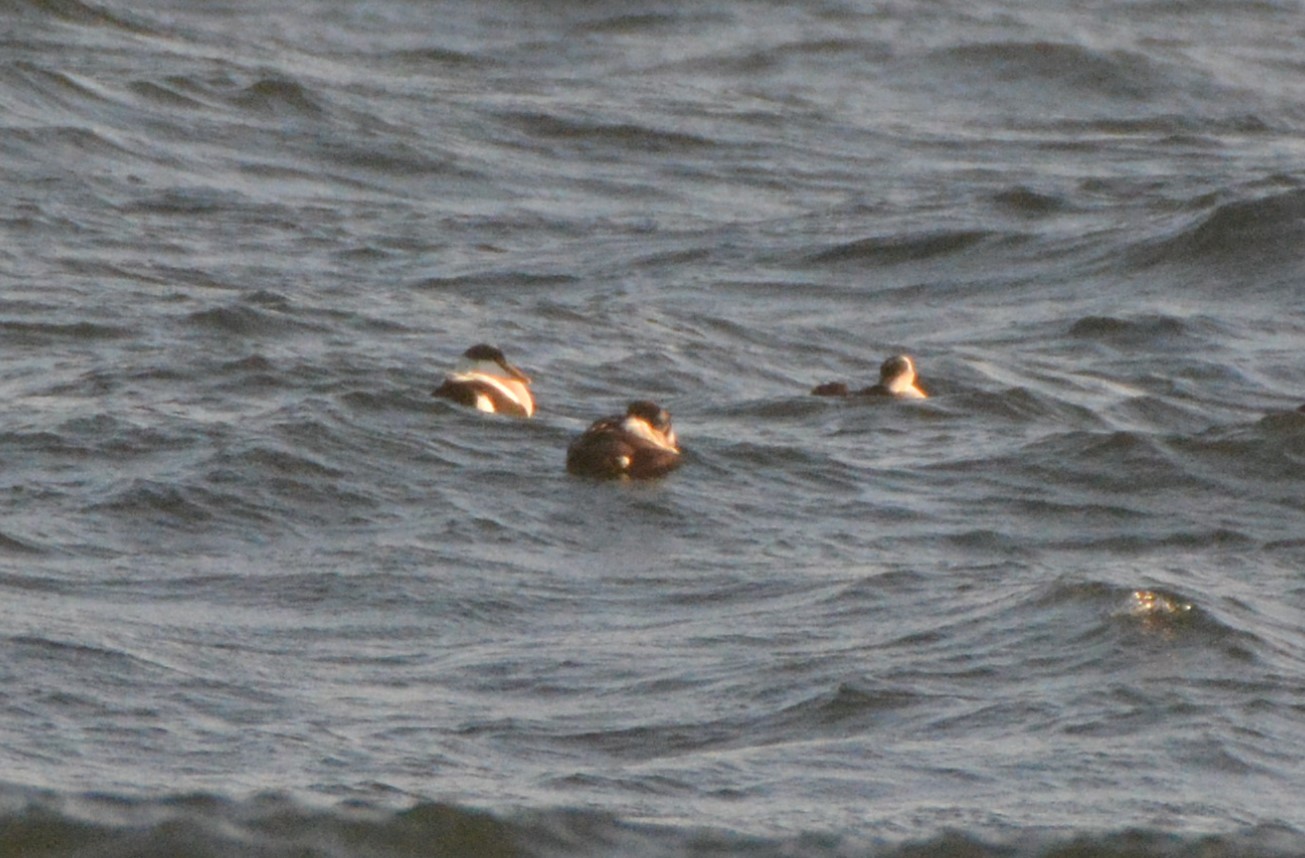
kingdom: Animalia
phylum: Chordata
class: Aves
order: Anseriformes
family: Anatidae
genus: Somateria
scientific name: Somateria mollissima
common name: Common eider
